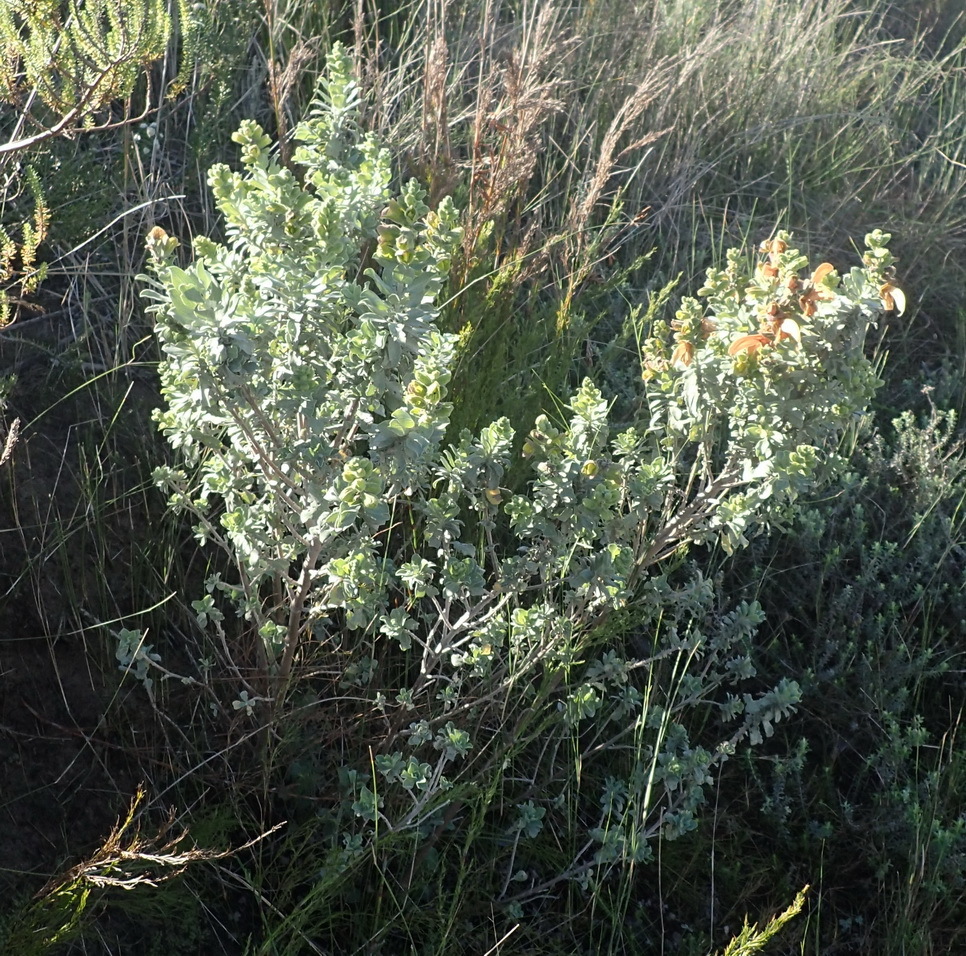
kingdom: Plantae
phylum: Tracheophyta
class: Magnoliopsida
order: Lamiales
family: Lamiaceae
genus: Salvia
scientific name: Salvia aurea
